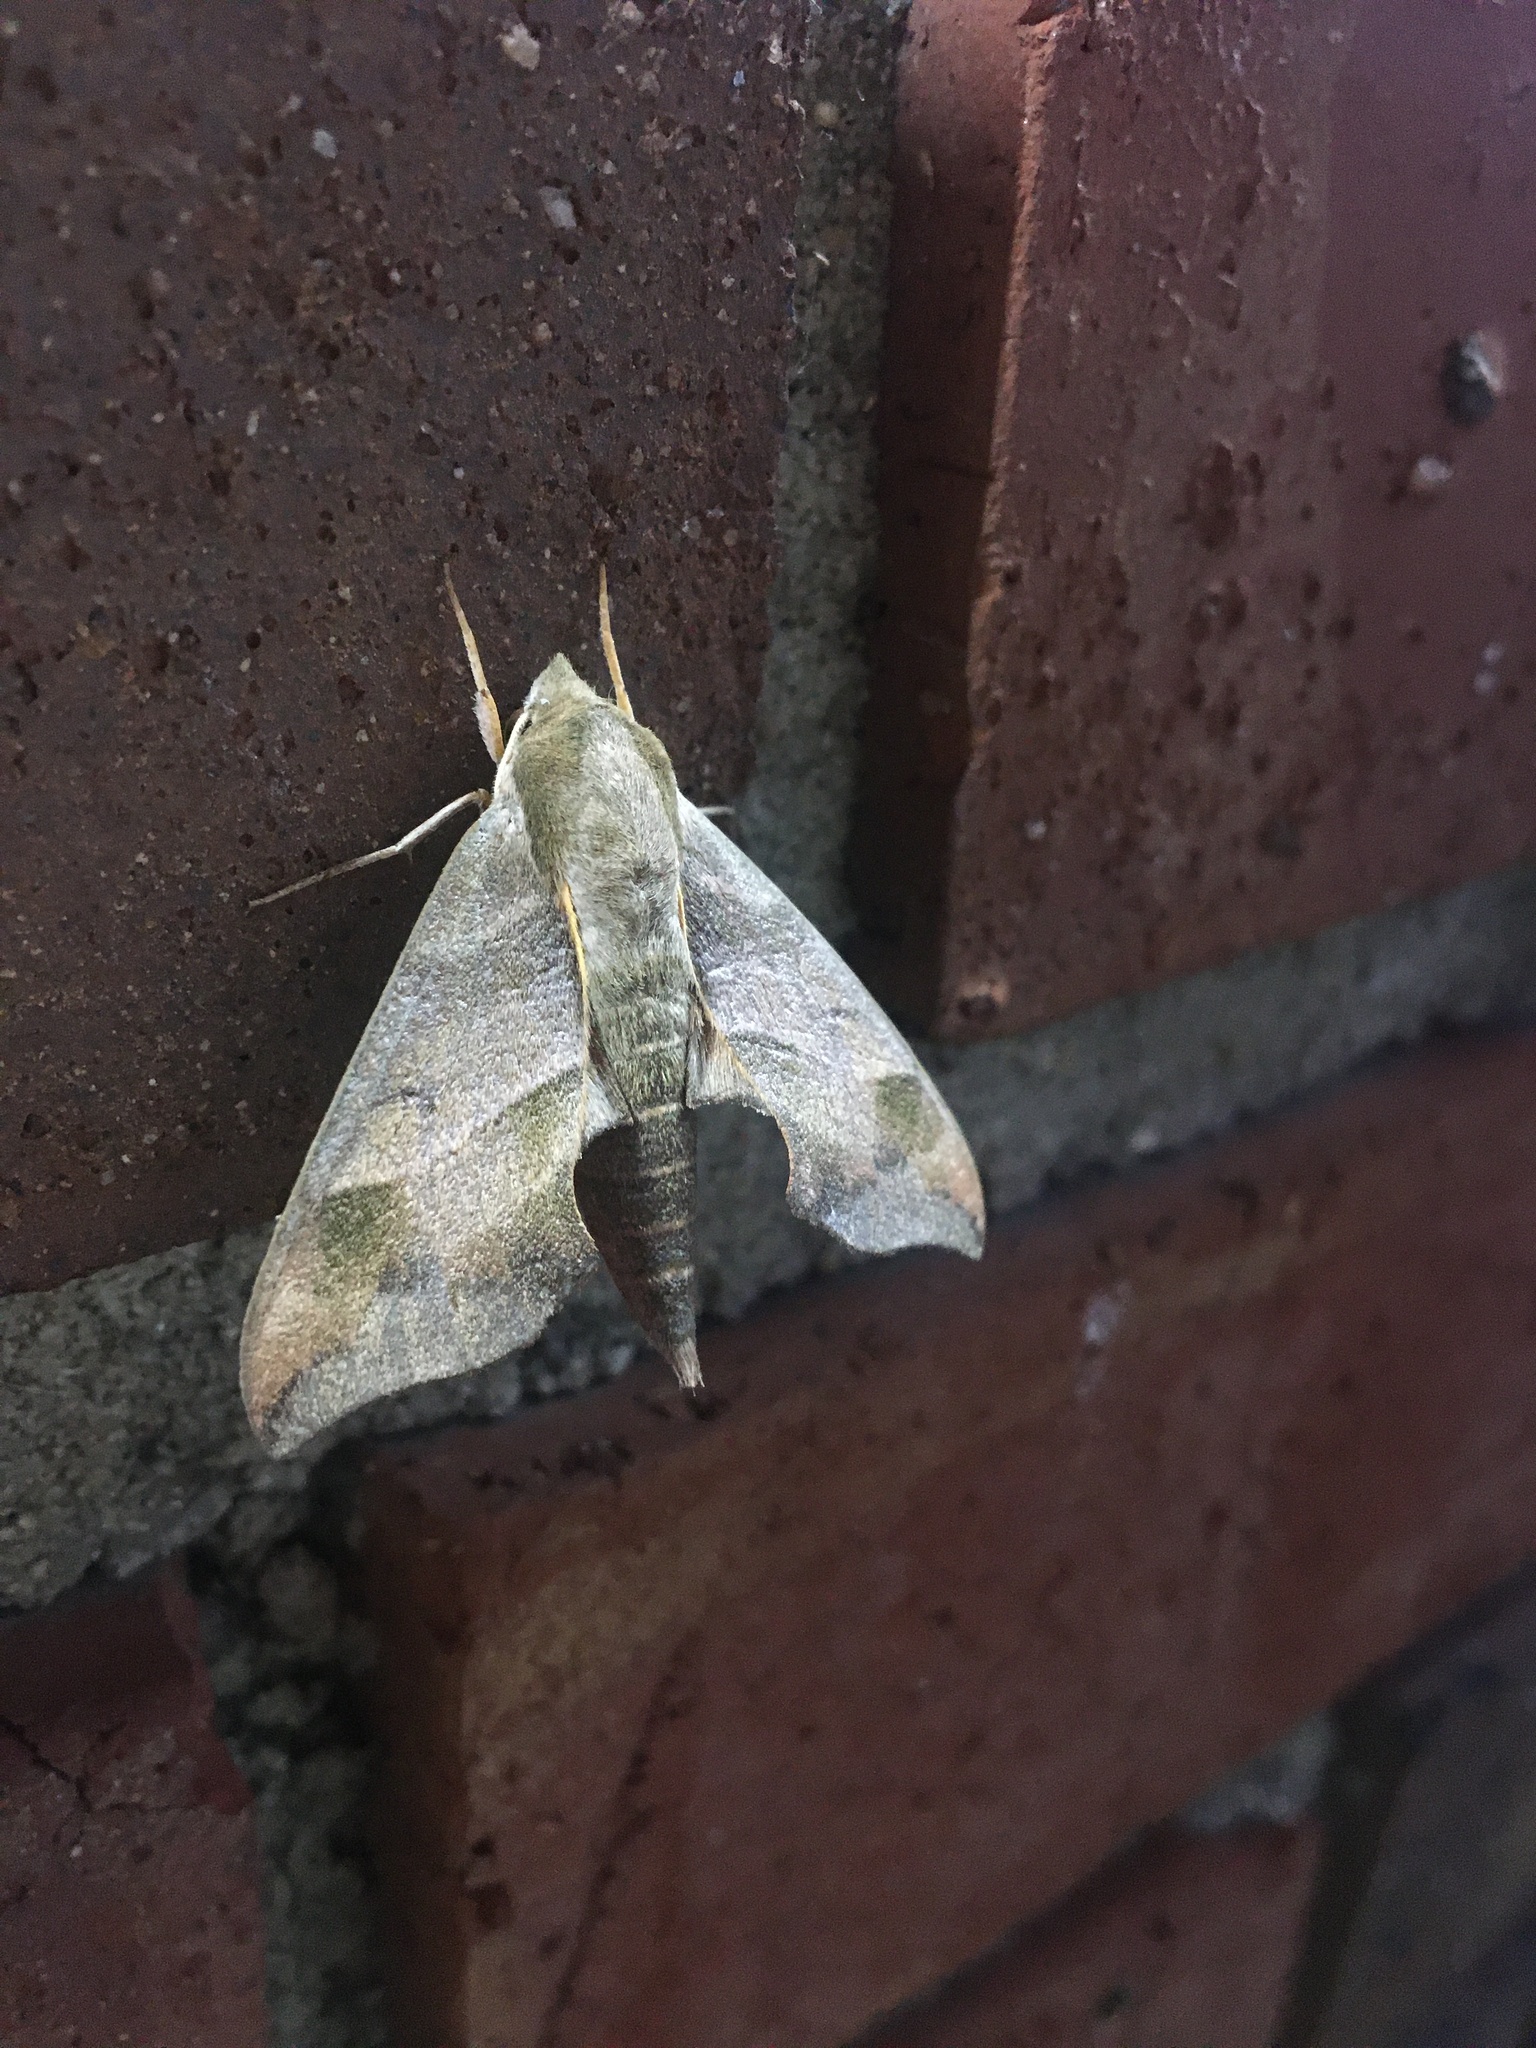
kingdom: Animalia
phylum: Arthropoda
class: Insecta
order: Lepidoptera
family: Sphingidae
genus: Darapsa
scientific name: Darapsa myron
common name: Hog sphinx
